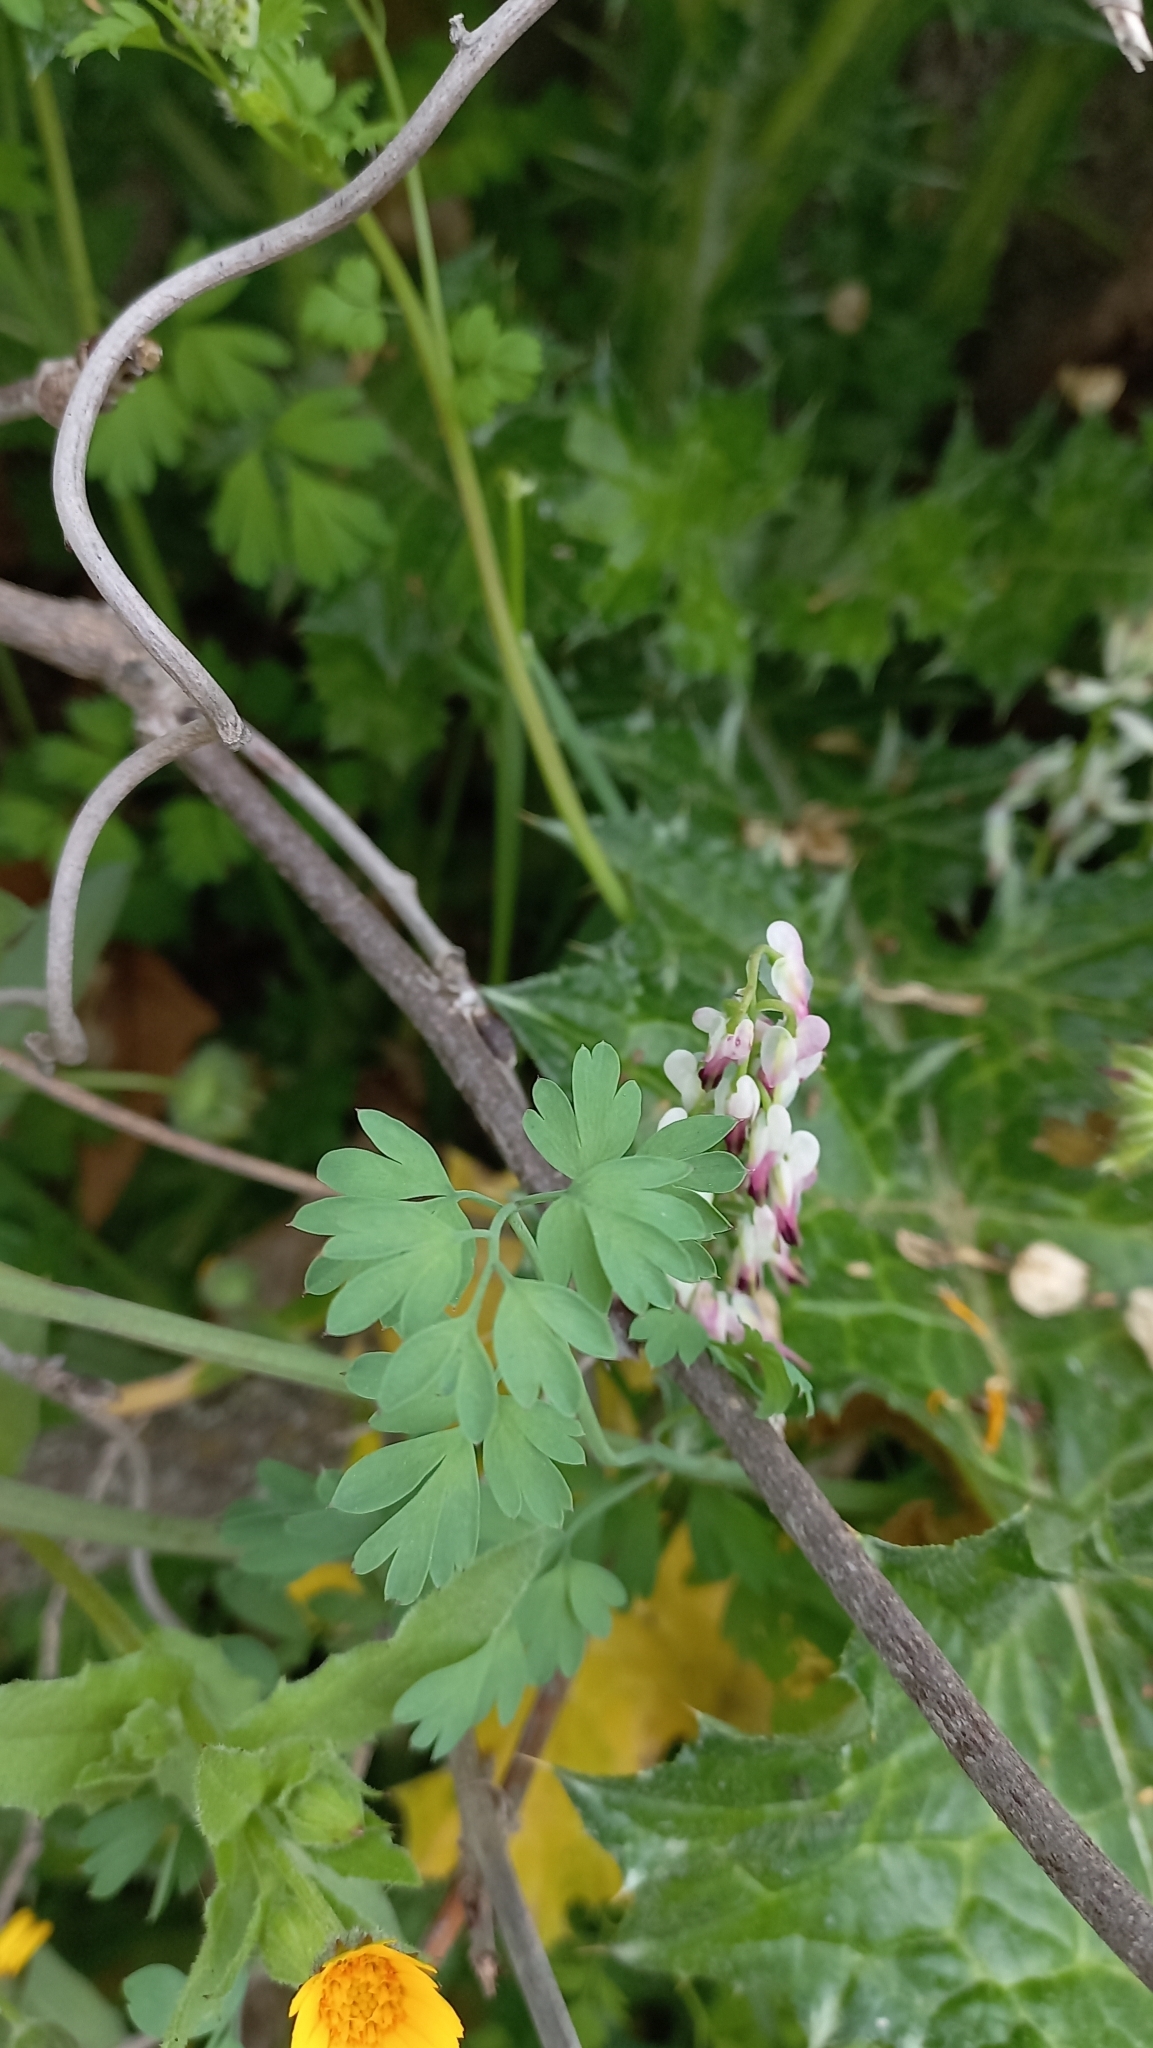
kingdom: Plantae
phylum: Tracheophyta
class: Magnoliopsida
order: Ranunculales
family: Papaveraceae
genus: Fumaria
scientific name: Fumaria capreolata
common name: White ramping-fumitory
